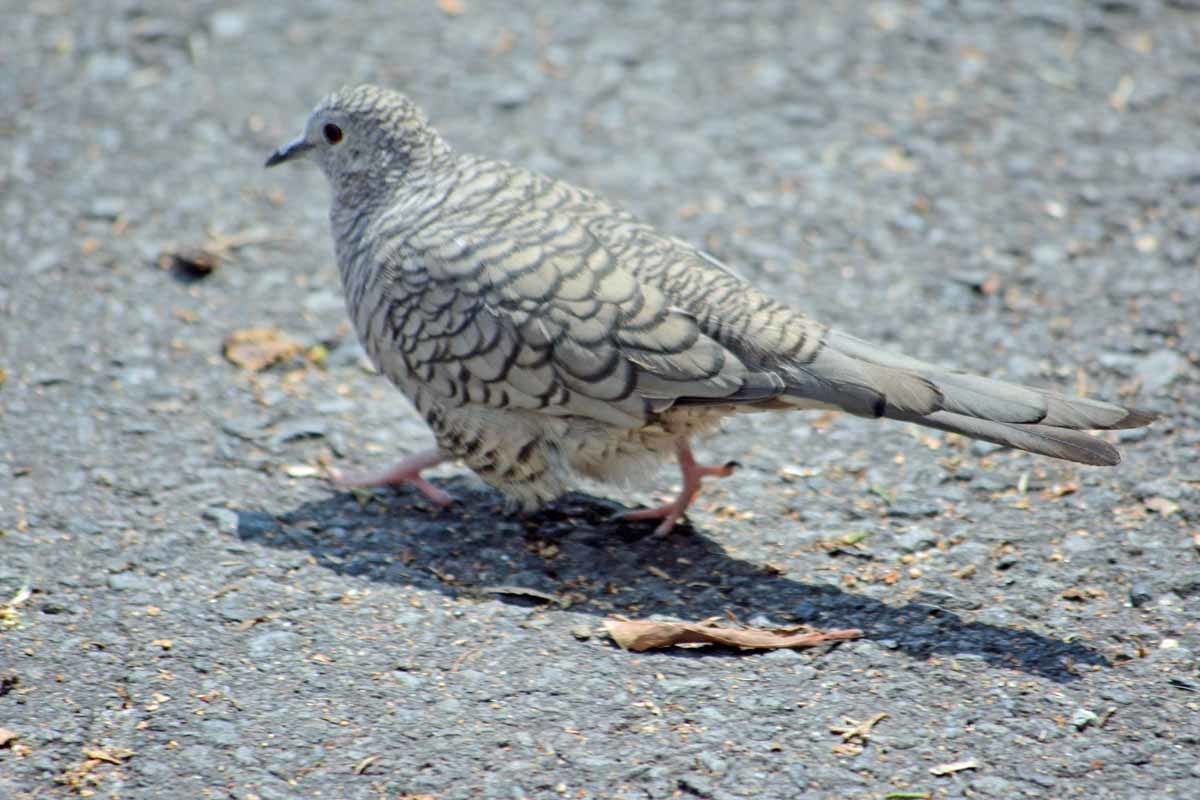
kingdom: Animalia
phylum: Chordata
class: Aves
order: Columbiformes
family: Columbidae
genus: Columbina
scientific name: Columbina inca
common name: Inca dove
